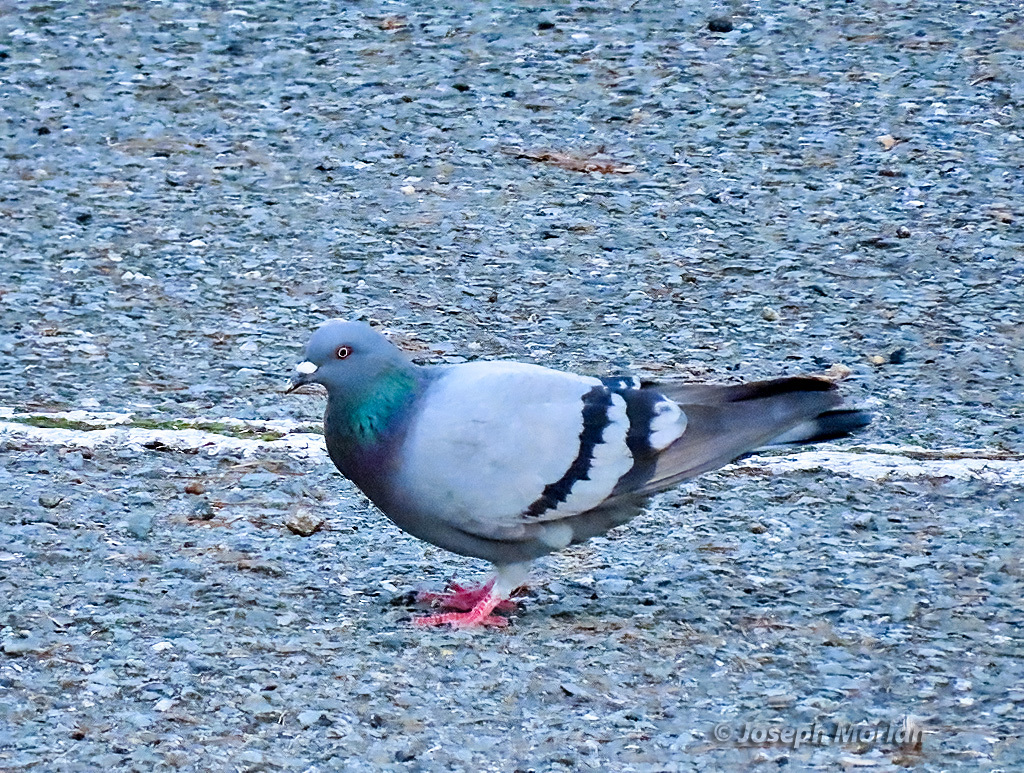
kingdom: Animalia
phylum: Chordata
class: Aves
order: Columbiformes
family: Columbidae
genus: Columba
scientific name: Columba livia
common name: Rock pigeon
